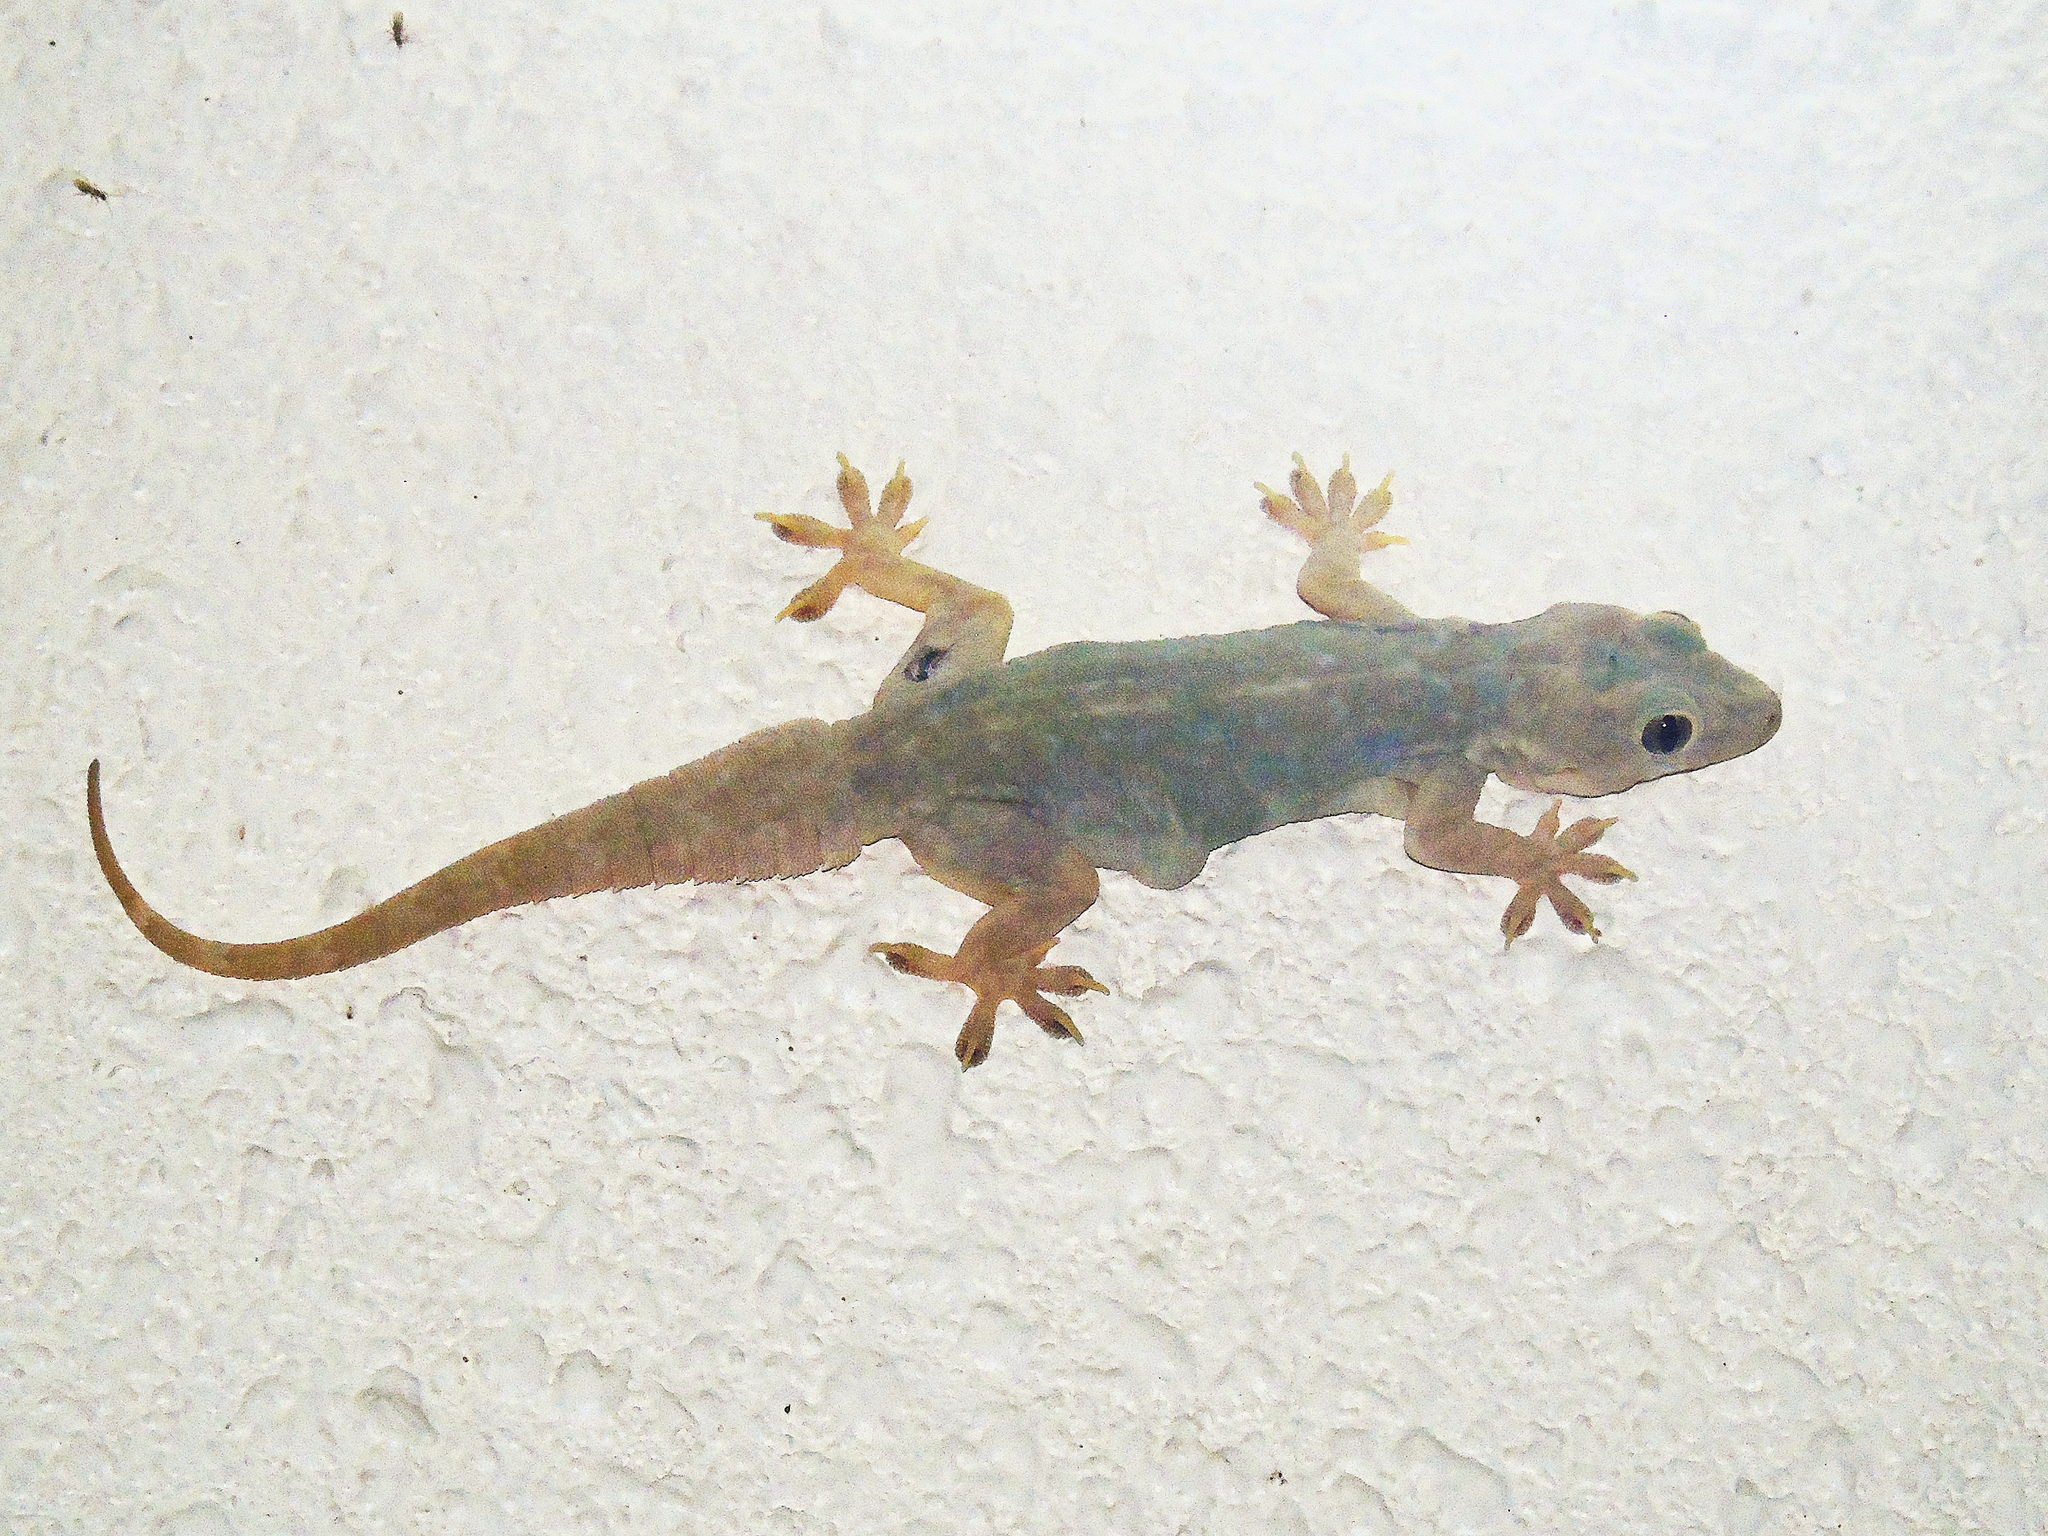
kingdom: Animalia
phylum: Chordata
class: Squamata
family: Gekkonidae
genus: Hemidactylus
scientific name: Hemidactylus flaviviridis
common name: Northern house gecko
